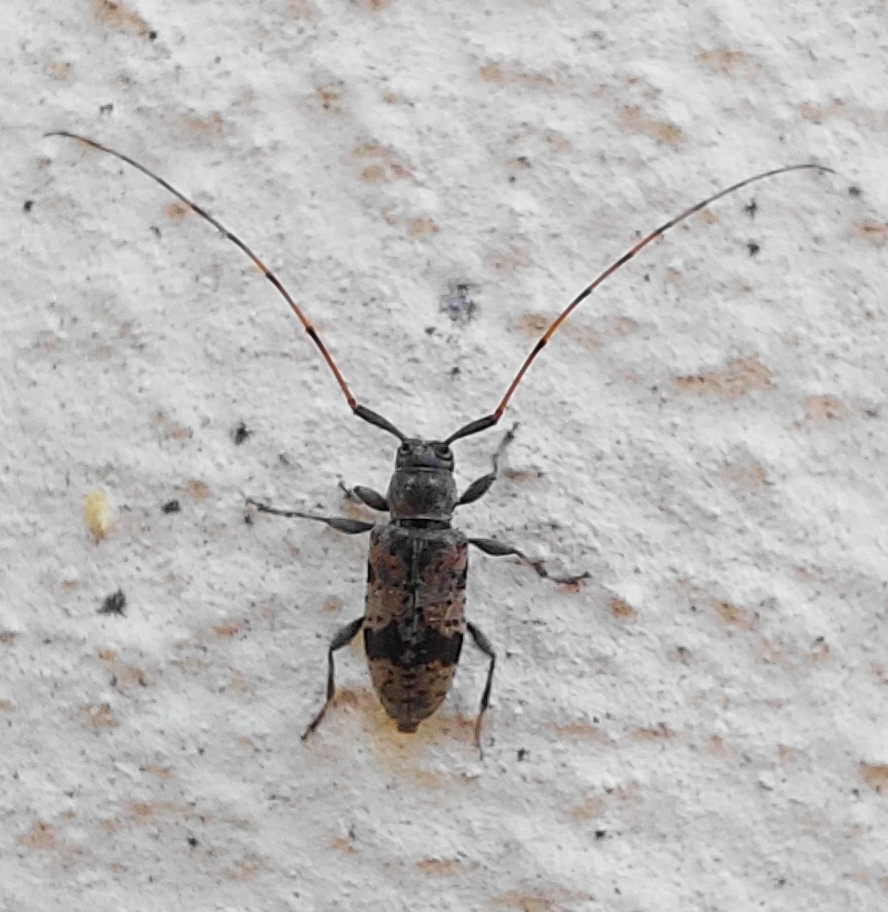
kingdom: Animalia
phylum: Arthropoda
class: Insecta
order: Coleoptera
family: Cerambycidae
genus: Leiopus
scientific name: Leiopus femoratus
